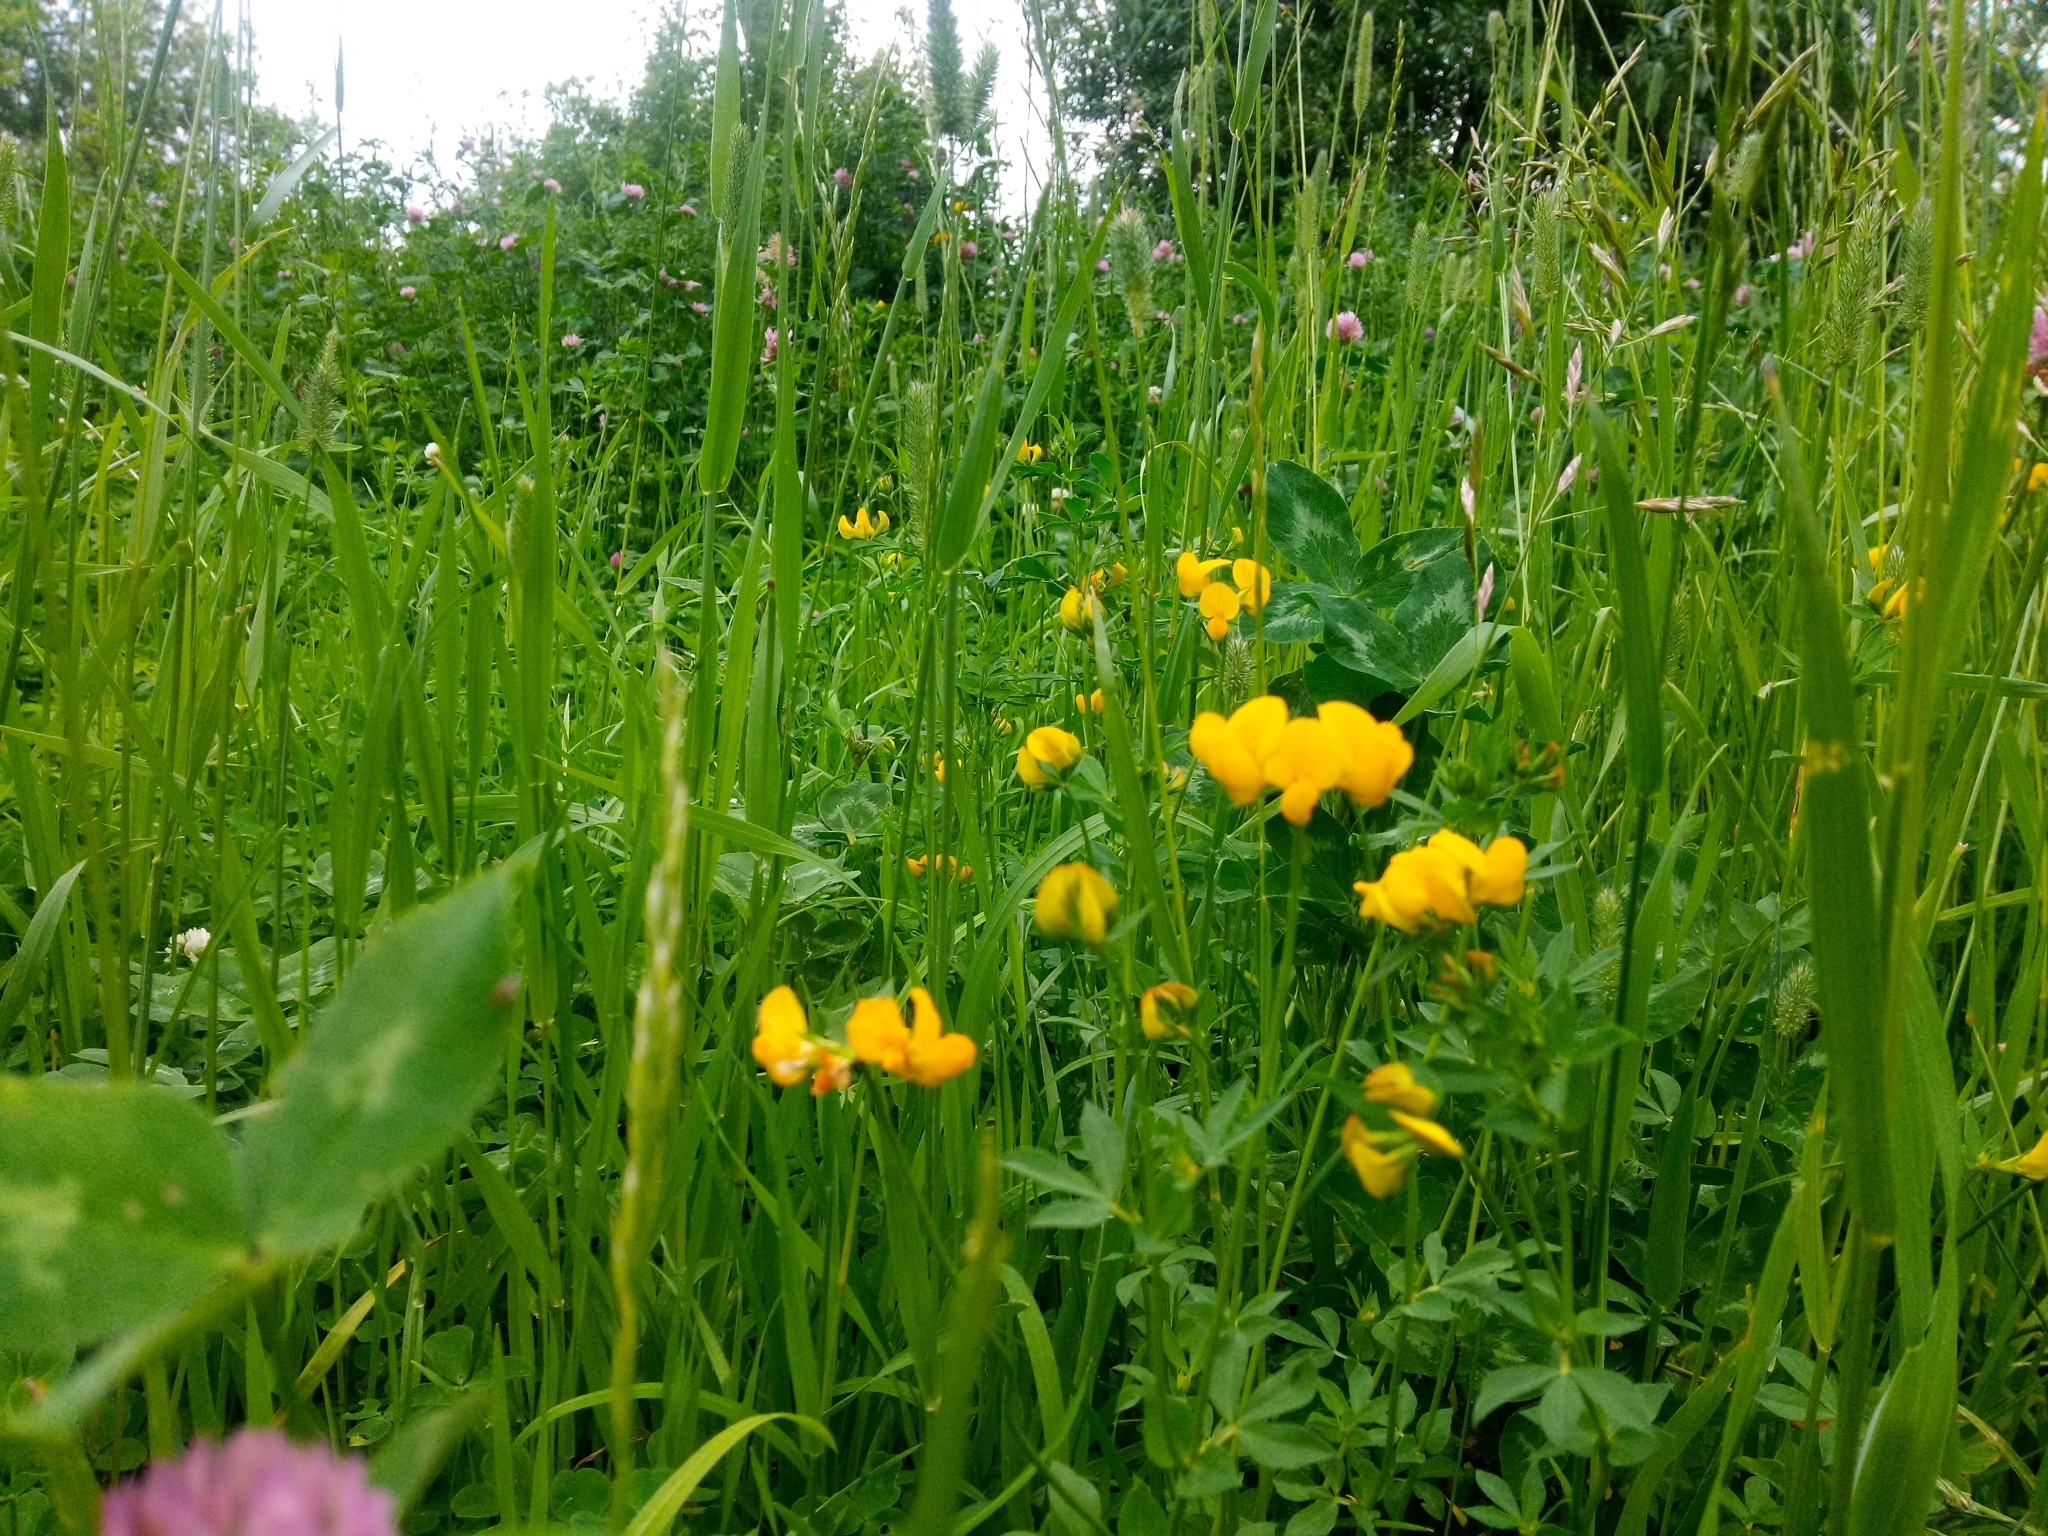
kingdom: Plantae
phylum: Tracheophyta
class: Magnoliopsida
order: Fabales
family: Fabaceae
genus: Lotus
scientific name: Lotus corniculatus
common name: Common bird's-foot-trefoil
